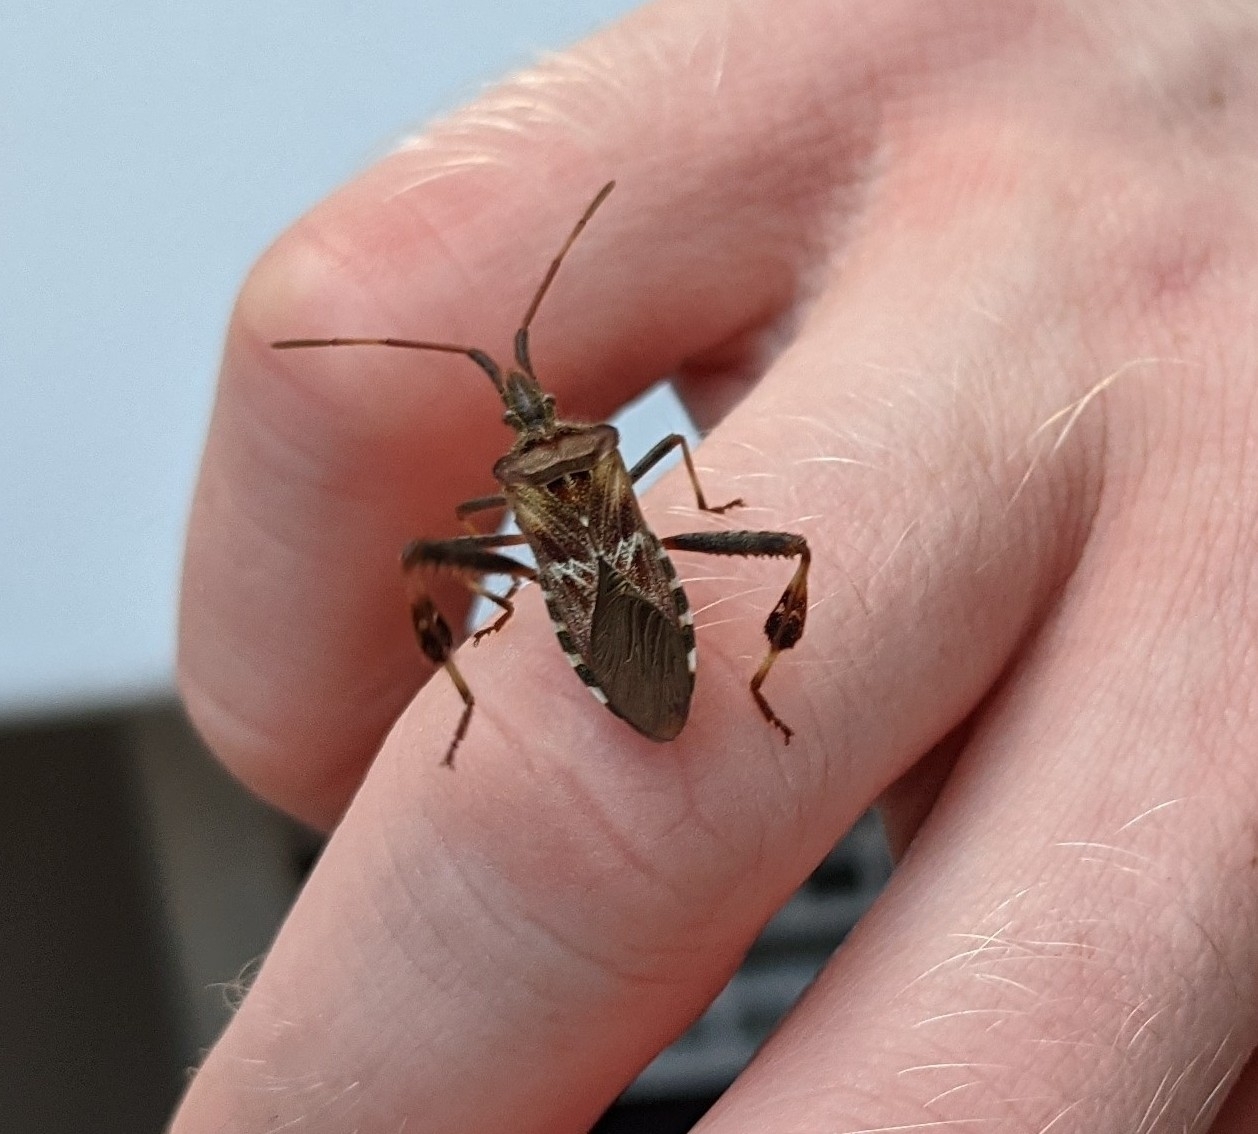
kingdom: Animalia
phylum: Arthropoda
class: Insecta
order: Hemiptera
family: Coreidae
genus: Leptoglossus
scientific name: Leptoglossus occidentalis
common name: Western conifer-seed bug
